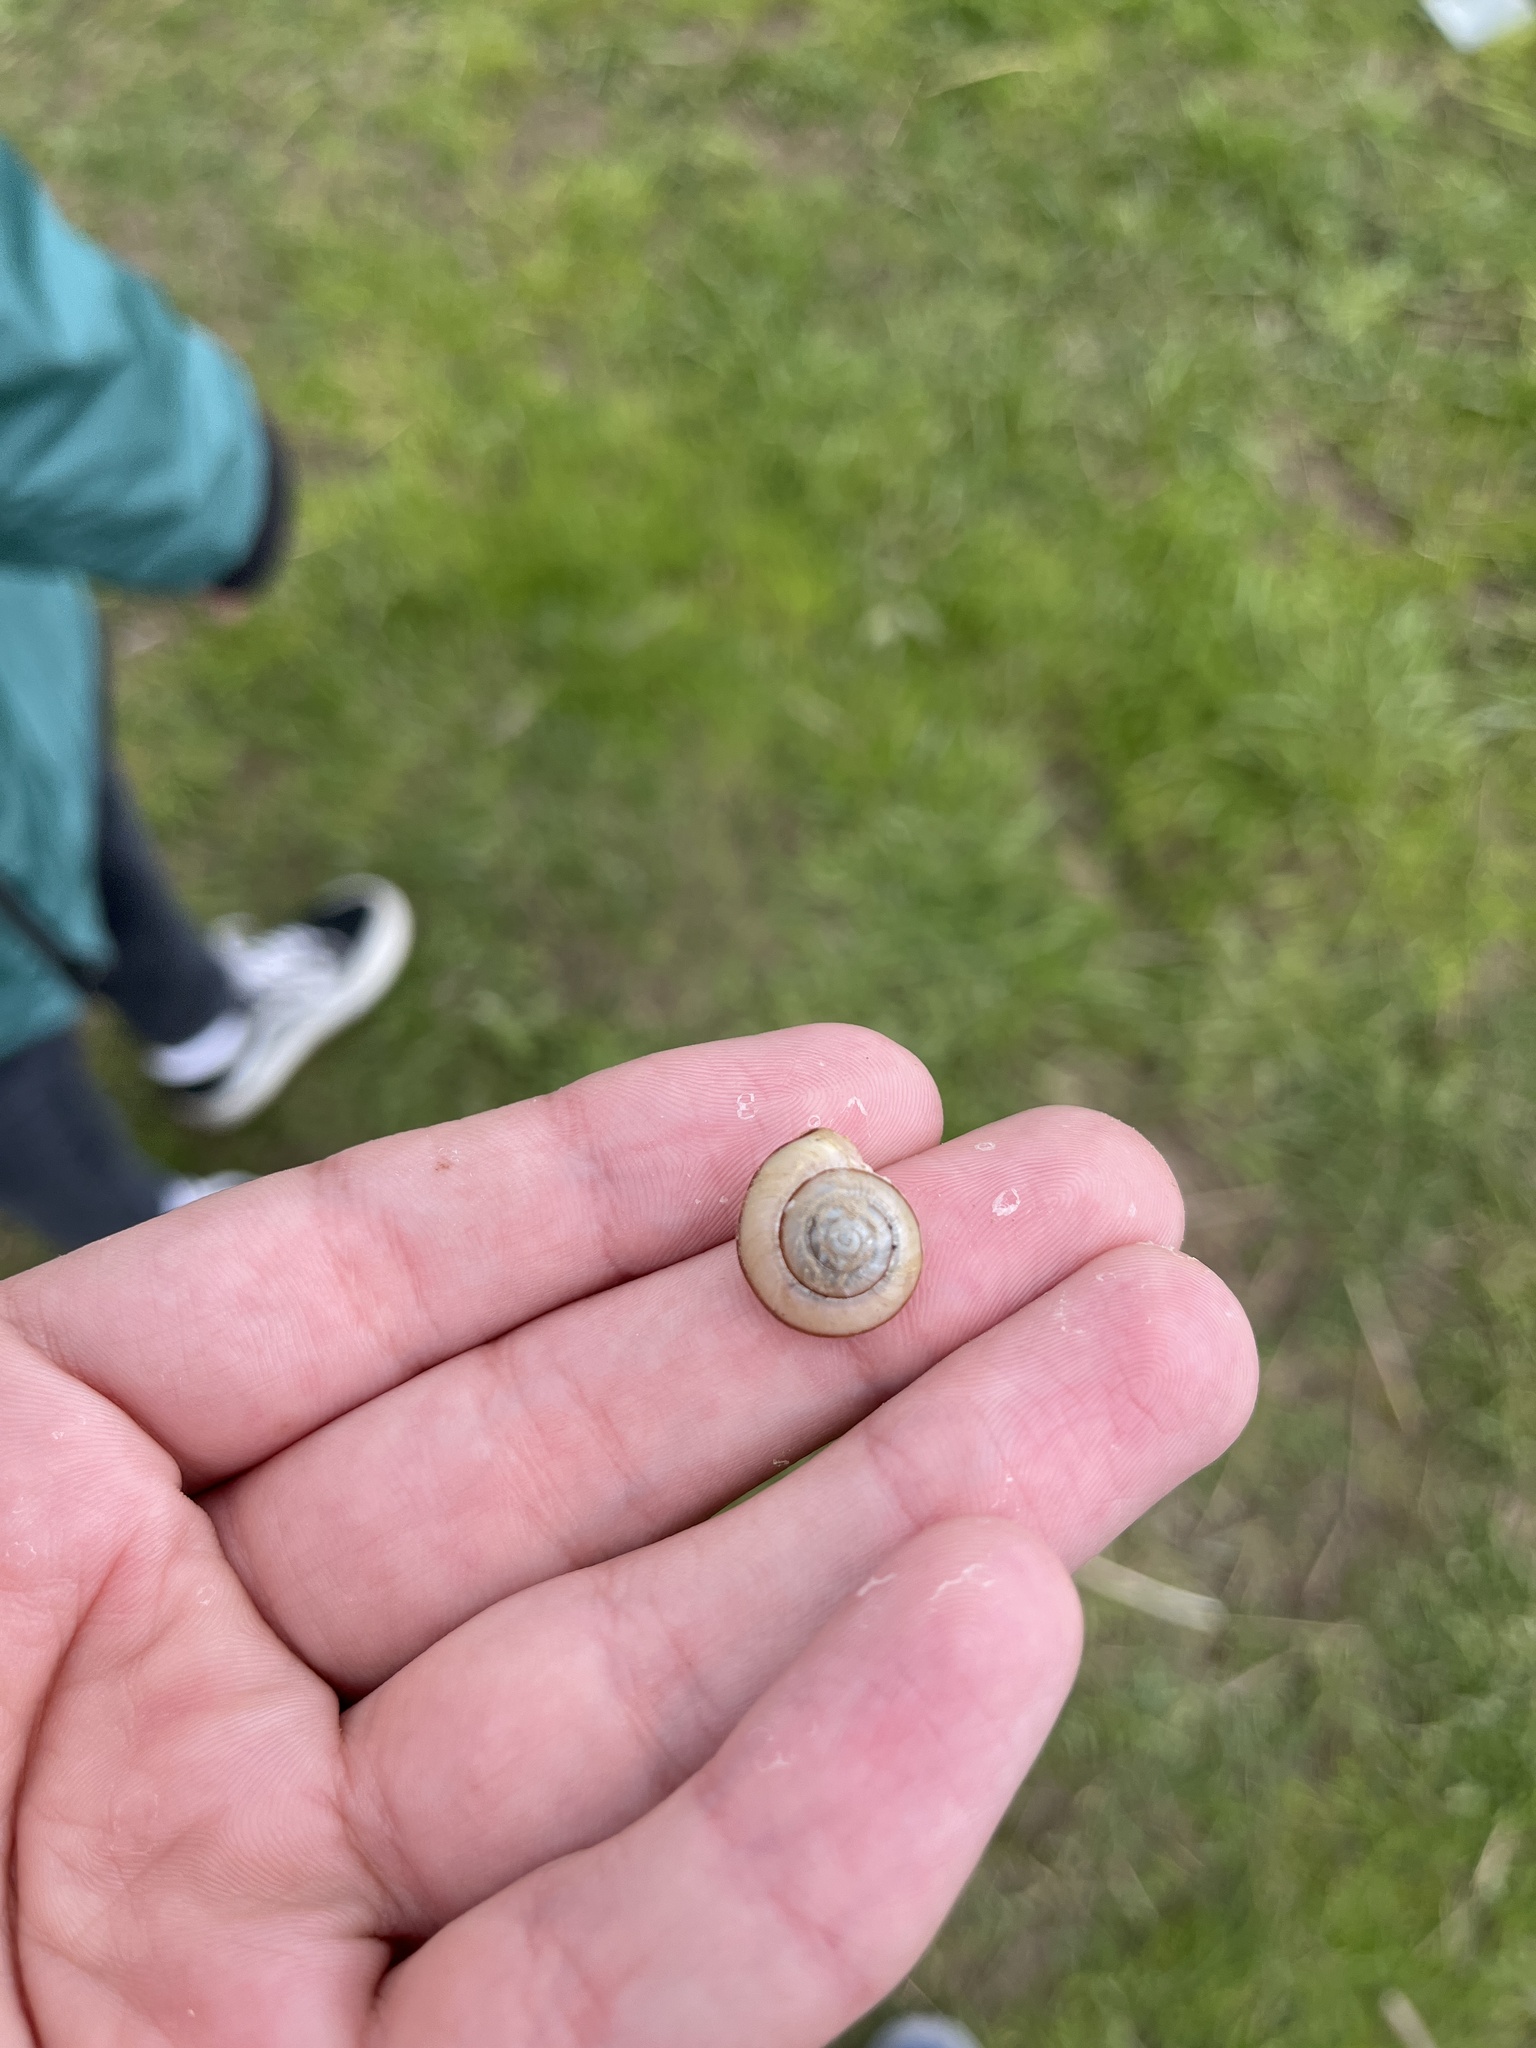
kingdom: Animalia
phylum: Mollusca
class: Gastropoda
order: Stylommatophora
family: Camaenidae
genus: Fruticicola
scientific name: Fruticicola fruticum
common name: Bush snail
